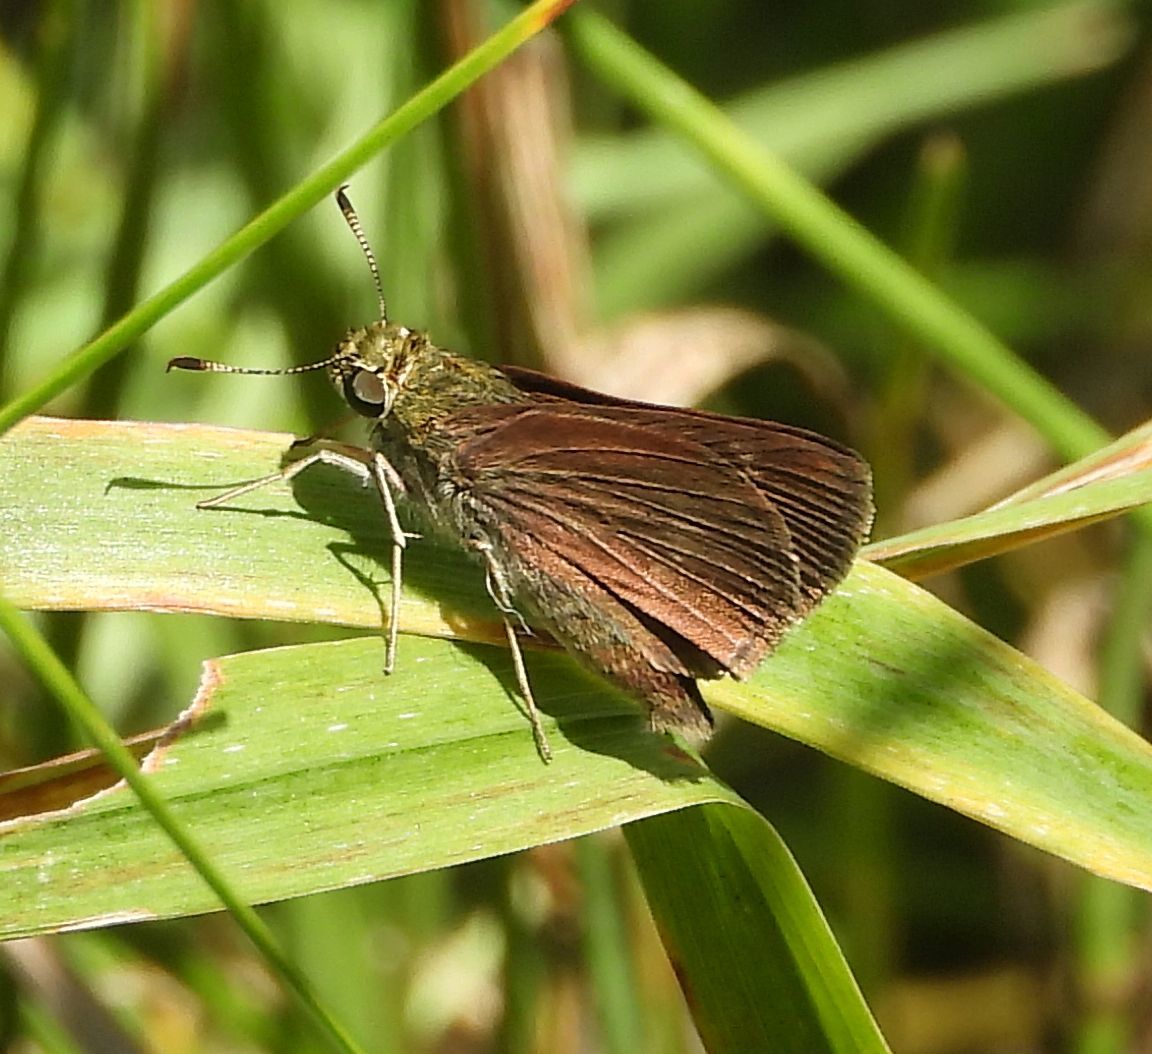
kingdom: Animalia
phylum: Arthropoda
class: Insecta
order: Lepidoptera
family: Hesperiidae
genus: Euphyes
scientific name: Euphyes vestris
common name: Dun skipper
